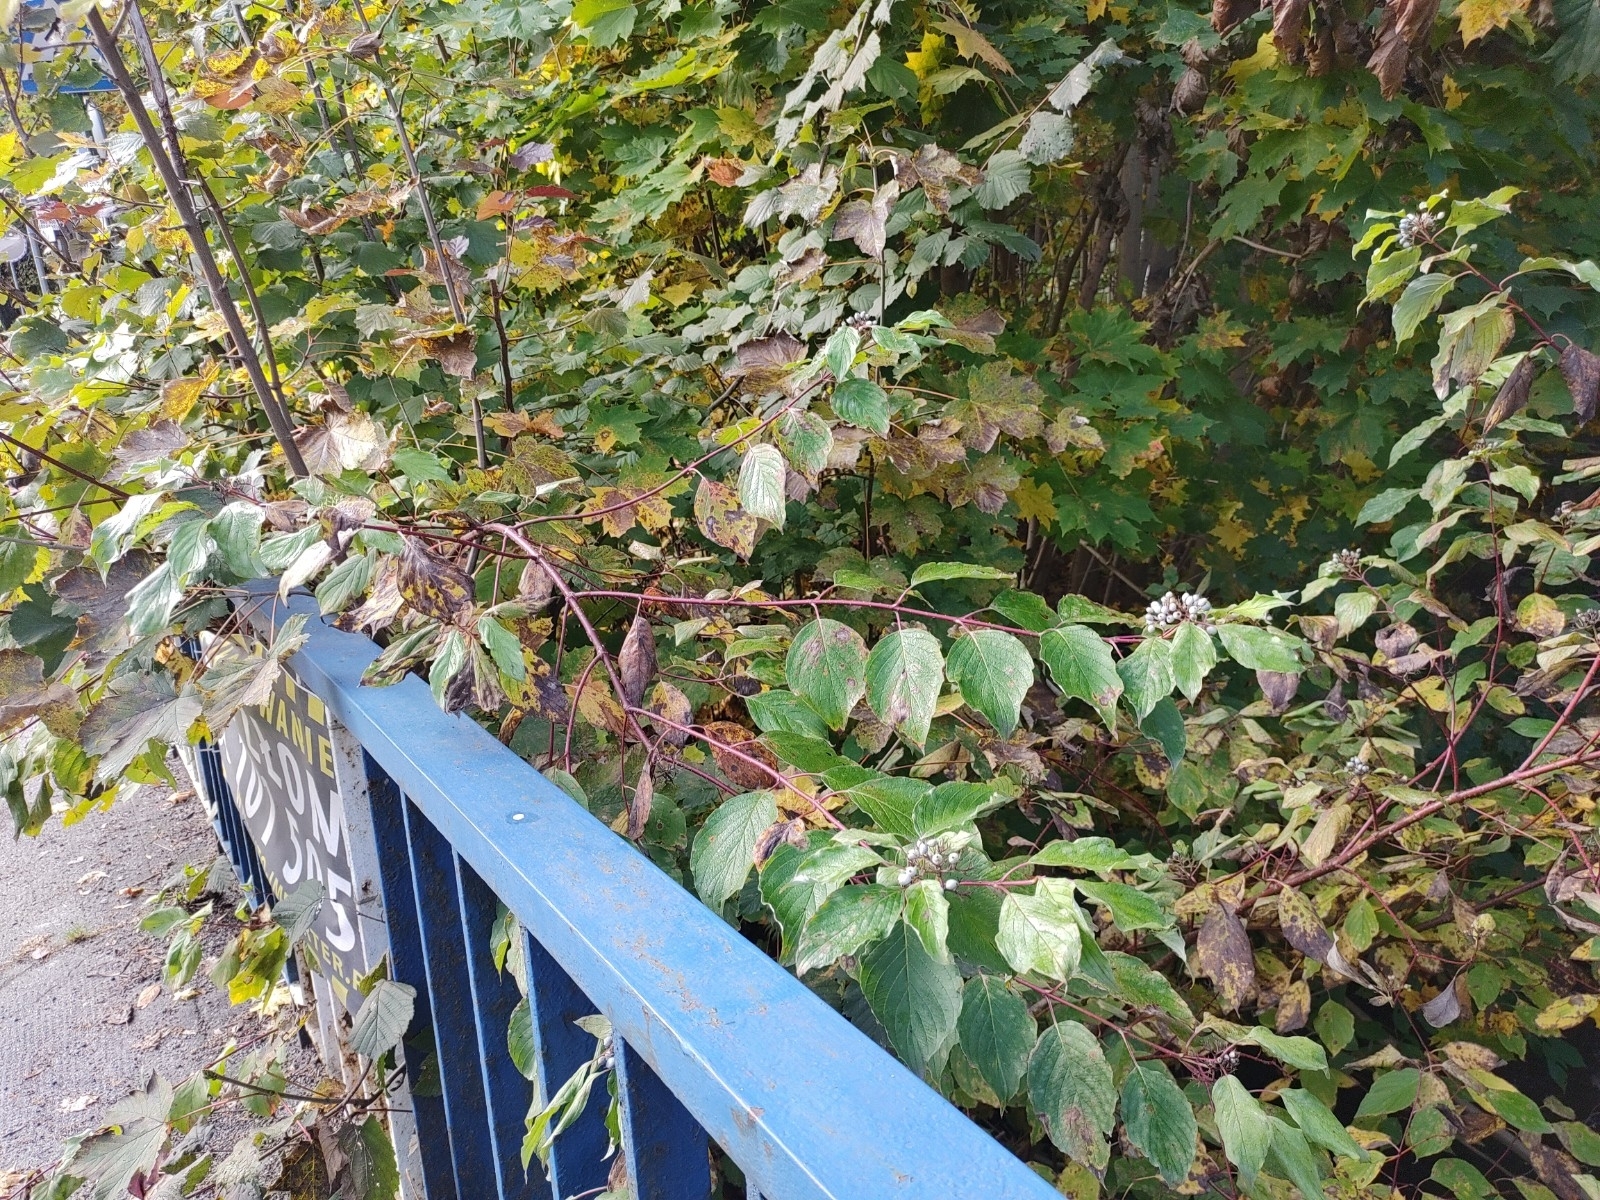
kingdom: Plantae
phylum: Tracheophyta
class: Magnoliopsida
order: Cornales
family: Cornaceae
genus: Cornus
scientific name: Cornus alba
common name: White dogwood
